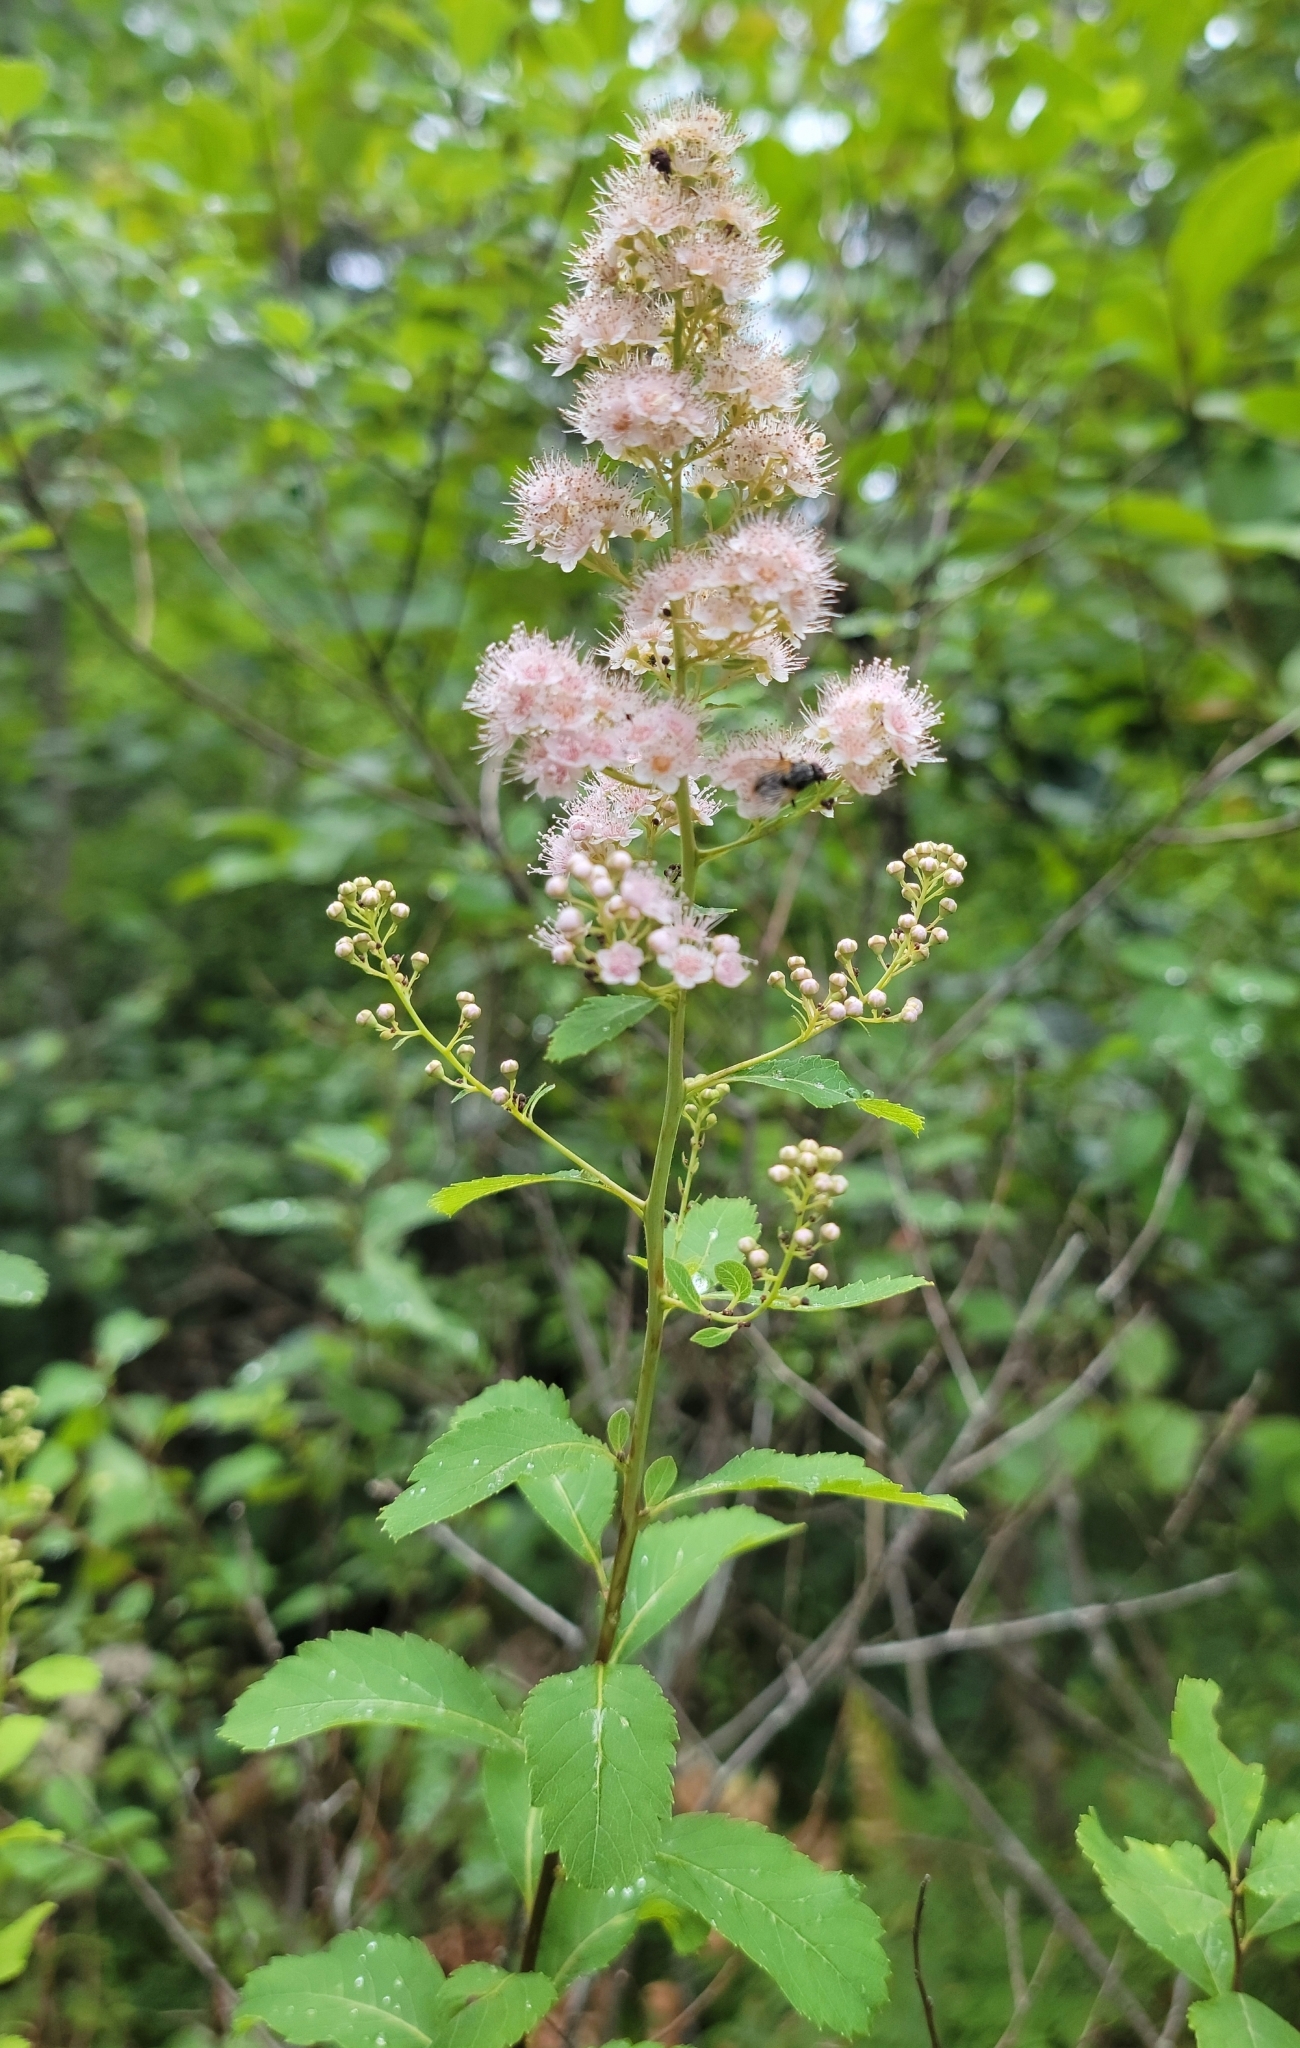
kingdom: Plantae
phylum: Tracheophyta
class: Magnoliopsida
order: Rosales
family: Rosaceae
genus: Spiraea
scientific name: Spiraea alba
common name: Pale bridewort
